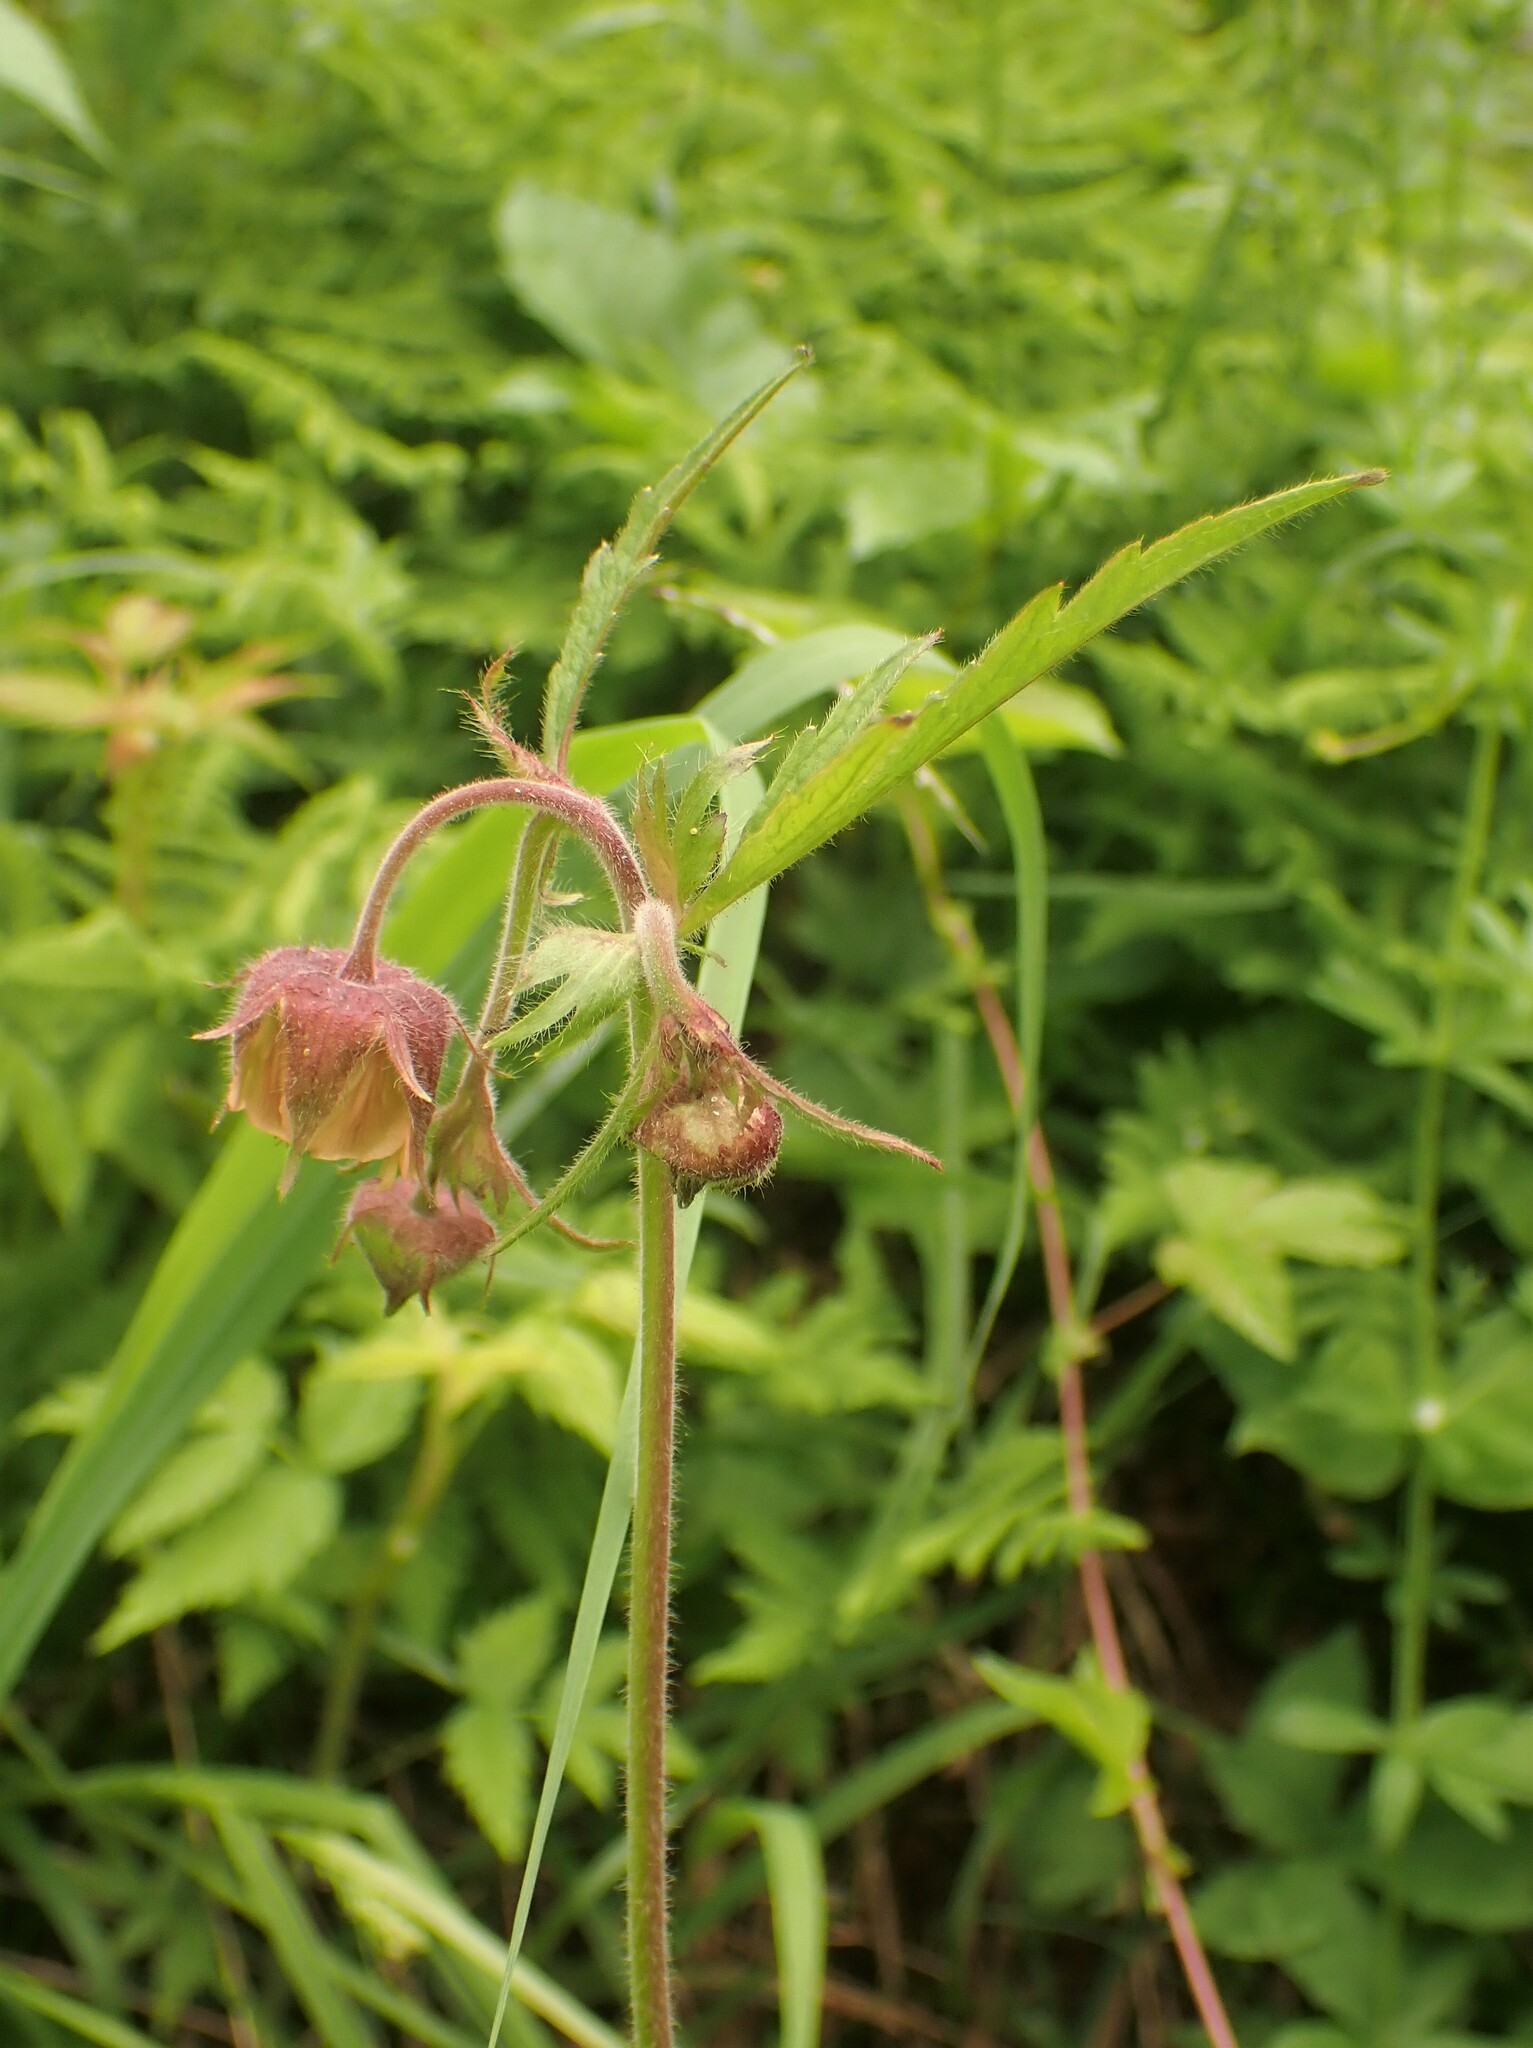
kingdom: Plantae
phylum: Tracheophyta
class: Magnoliopsida
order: Rosales
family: Rosaceae
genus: Geum
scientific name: Geum rivale
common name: Water avens
